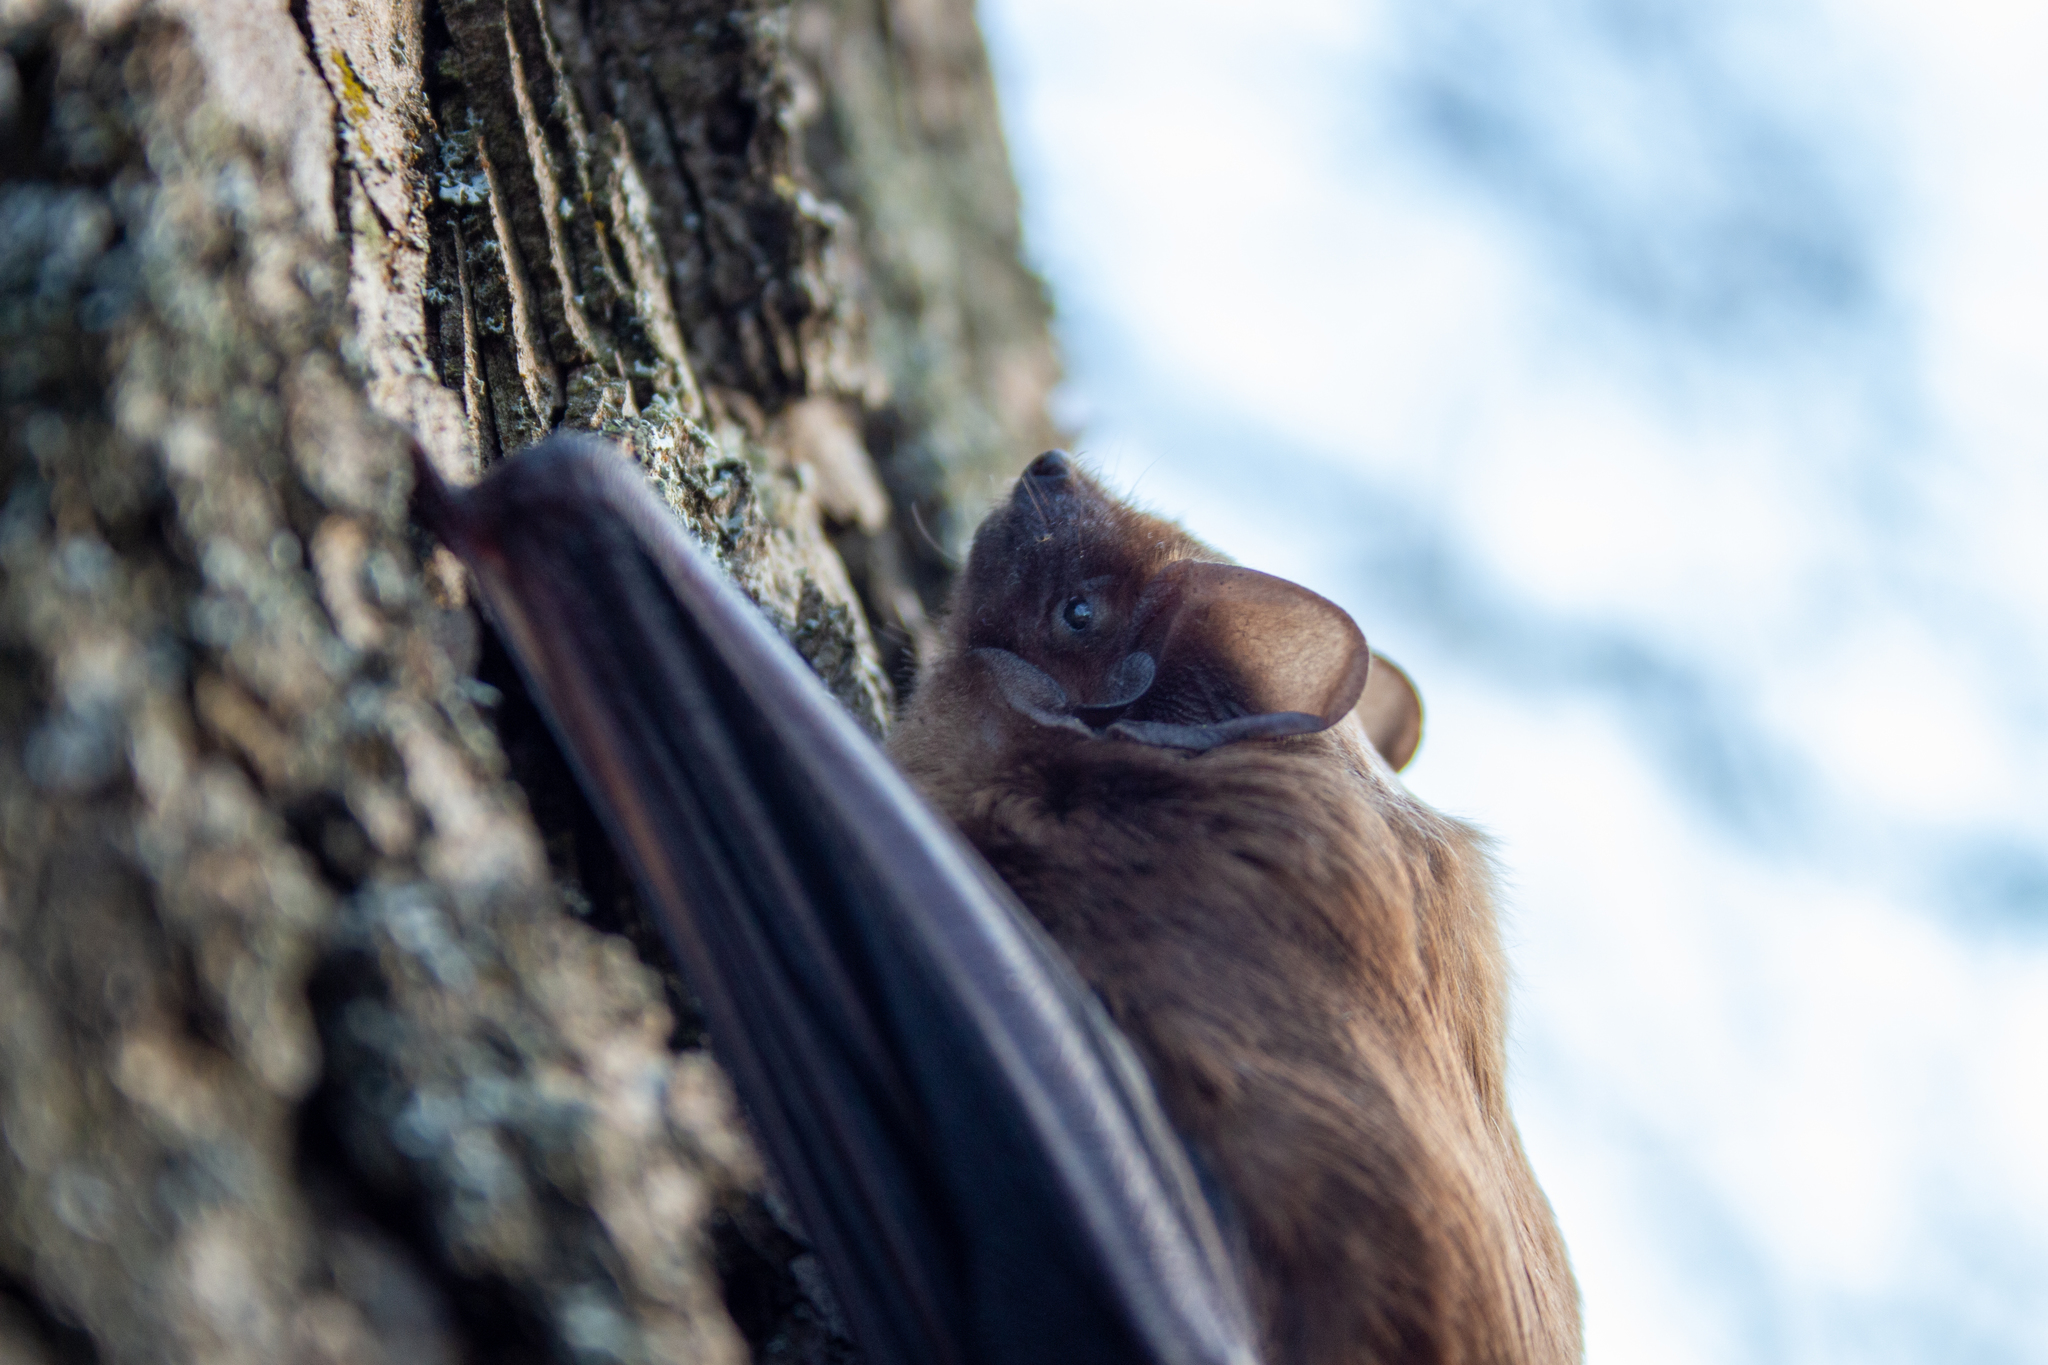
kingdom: Animalia
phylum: Chordata
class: Mammalia
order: Chiroptera
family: Vespertilionidae
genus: Nyctalus
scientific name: Nyctalus noctula
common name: Noctule
